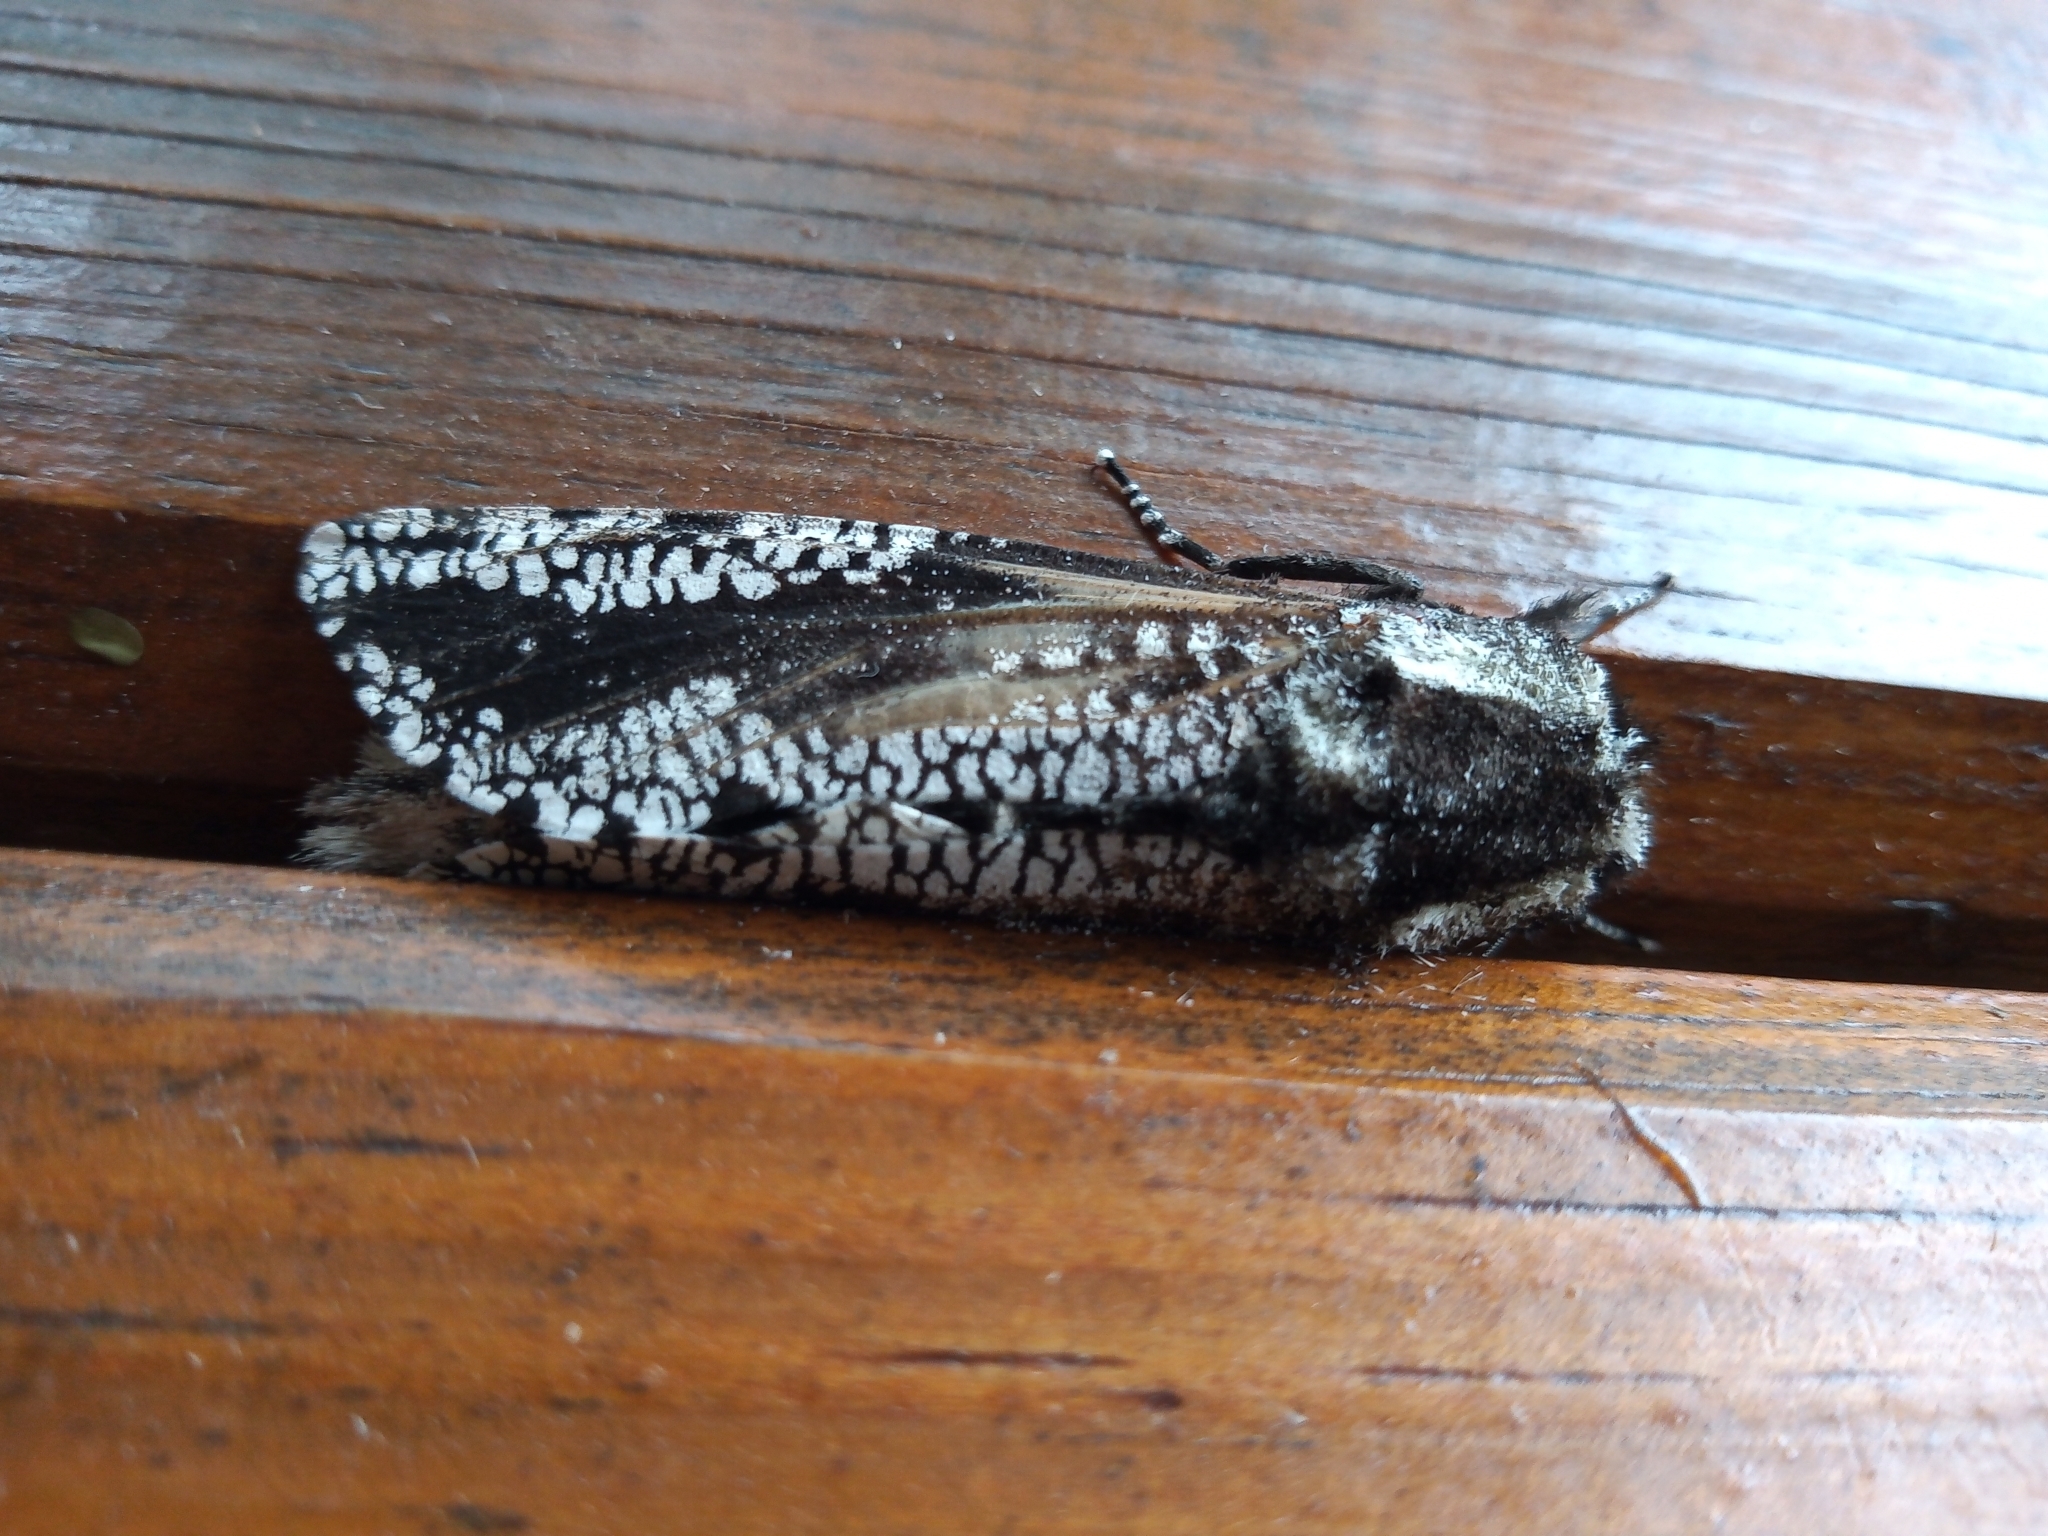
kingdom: Animalia
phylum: Arthropoda
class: Insecta
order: Lepidoptera
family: Cossidae
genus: Morpheis
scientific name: Morpheis melanoleuca
